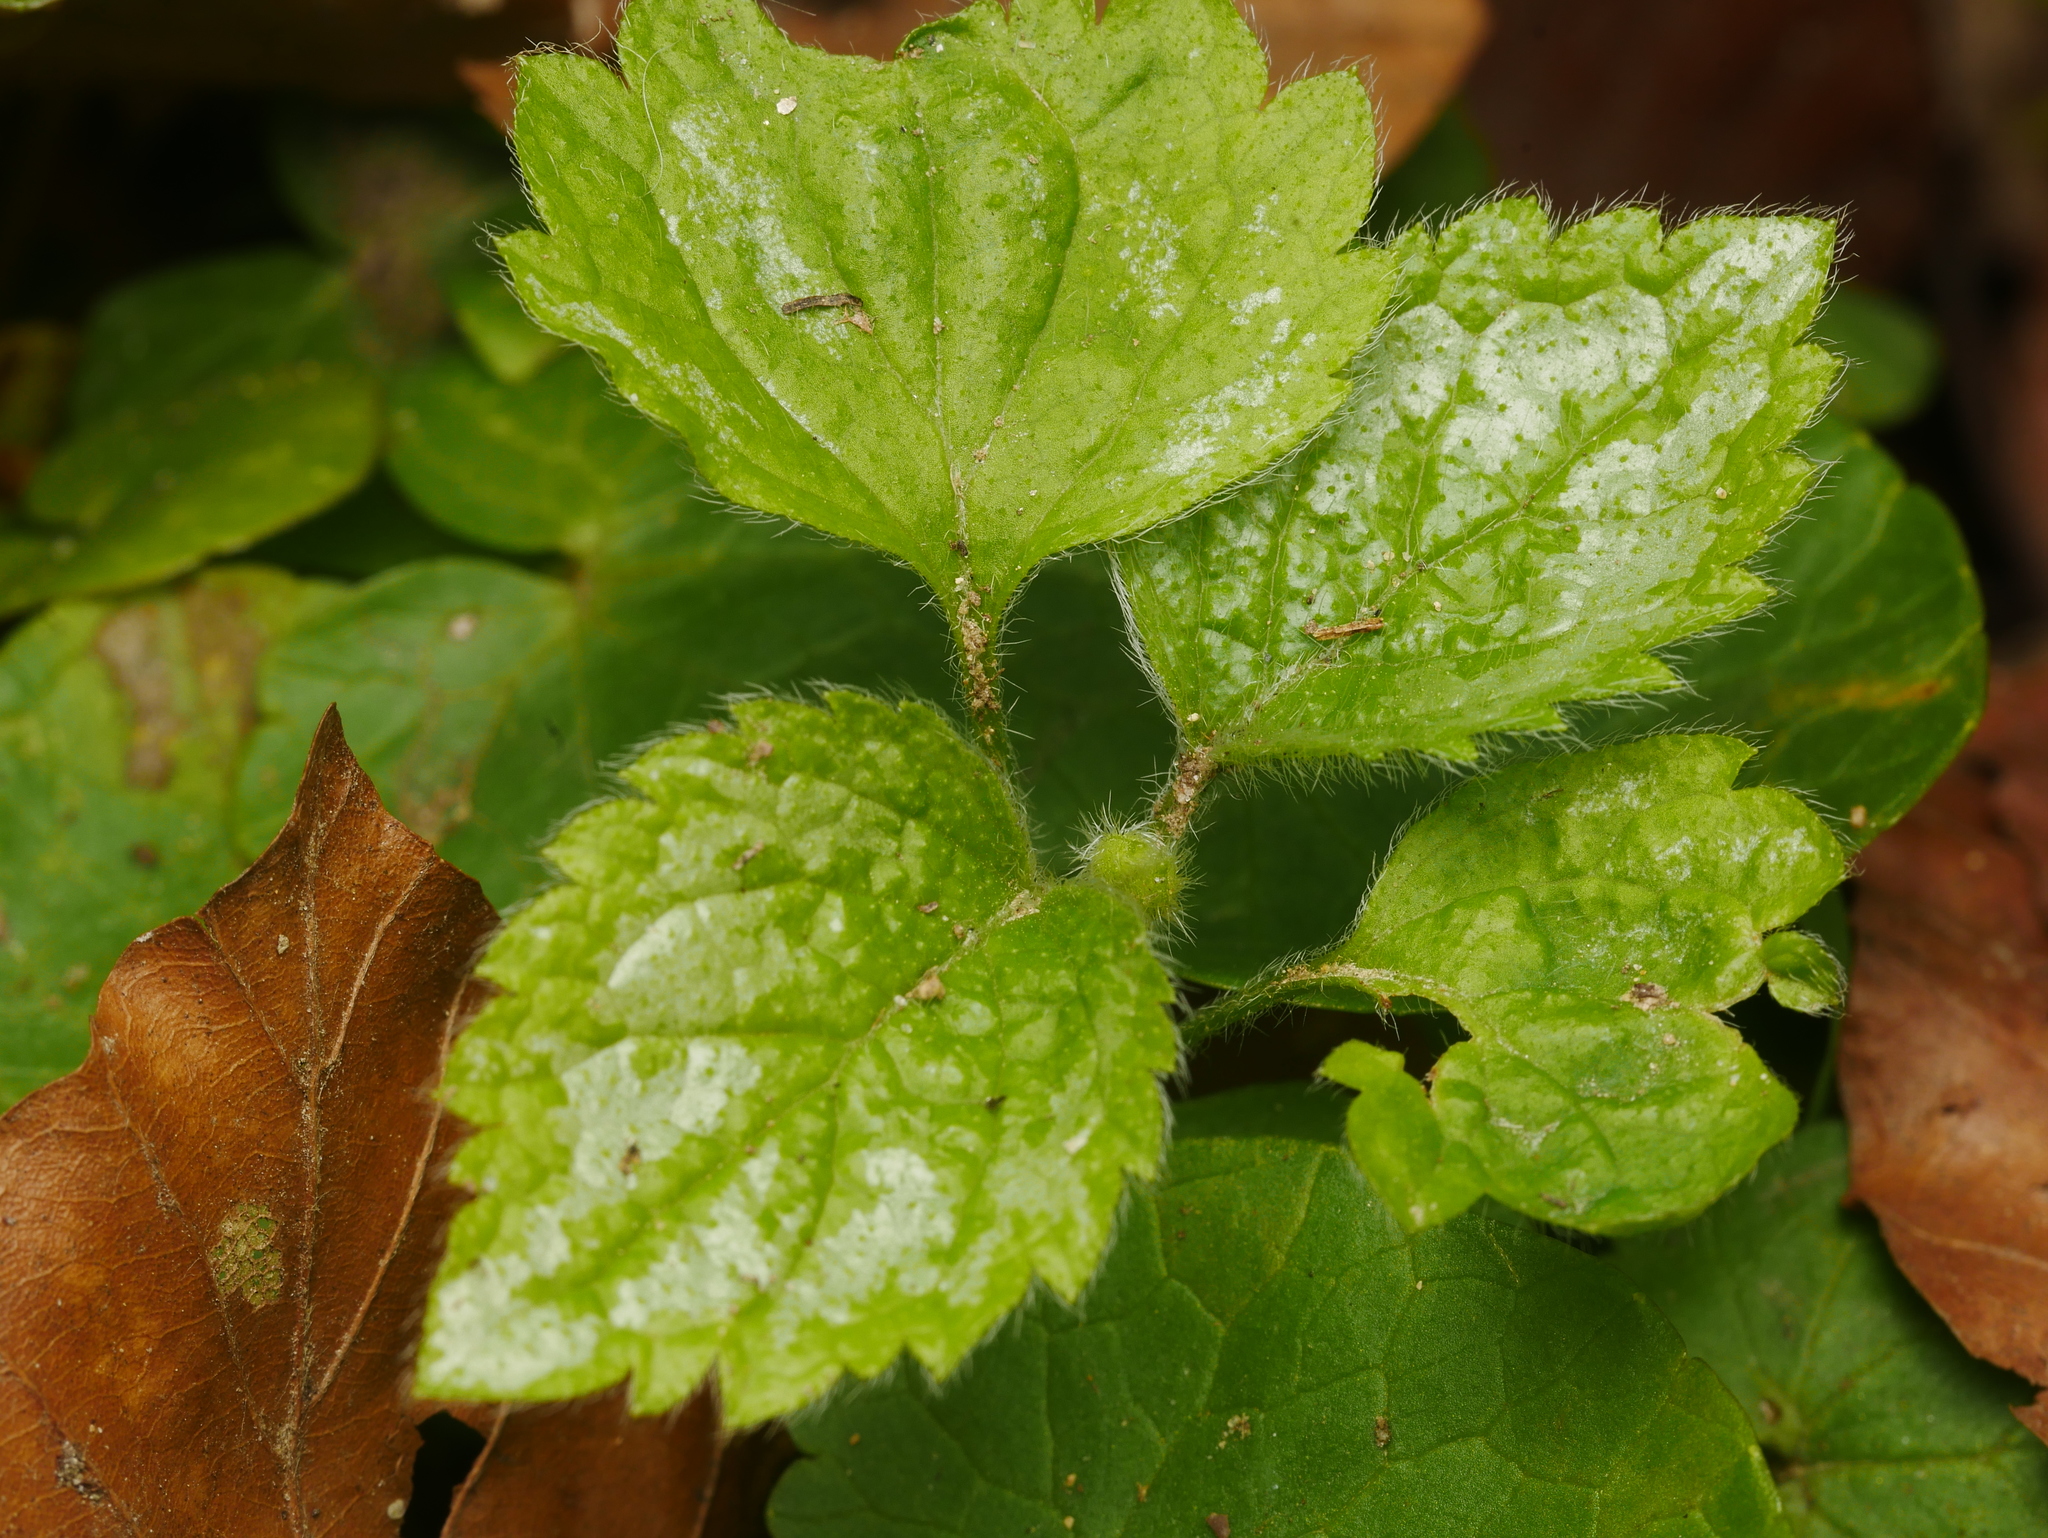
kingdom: Plantae
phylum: Tracheophyta
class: Magnoliopsida
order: Lamiales
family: Lamiaceae
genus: Lamium
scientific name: Lamium galeobdolon
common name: Yellow archangel
